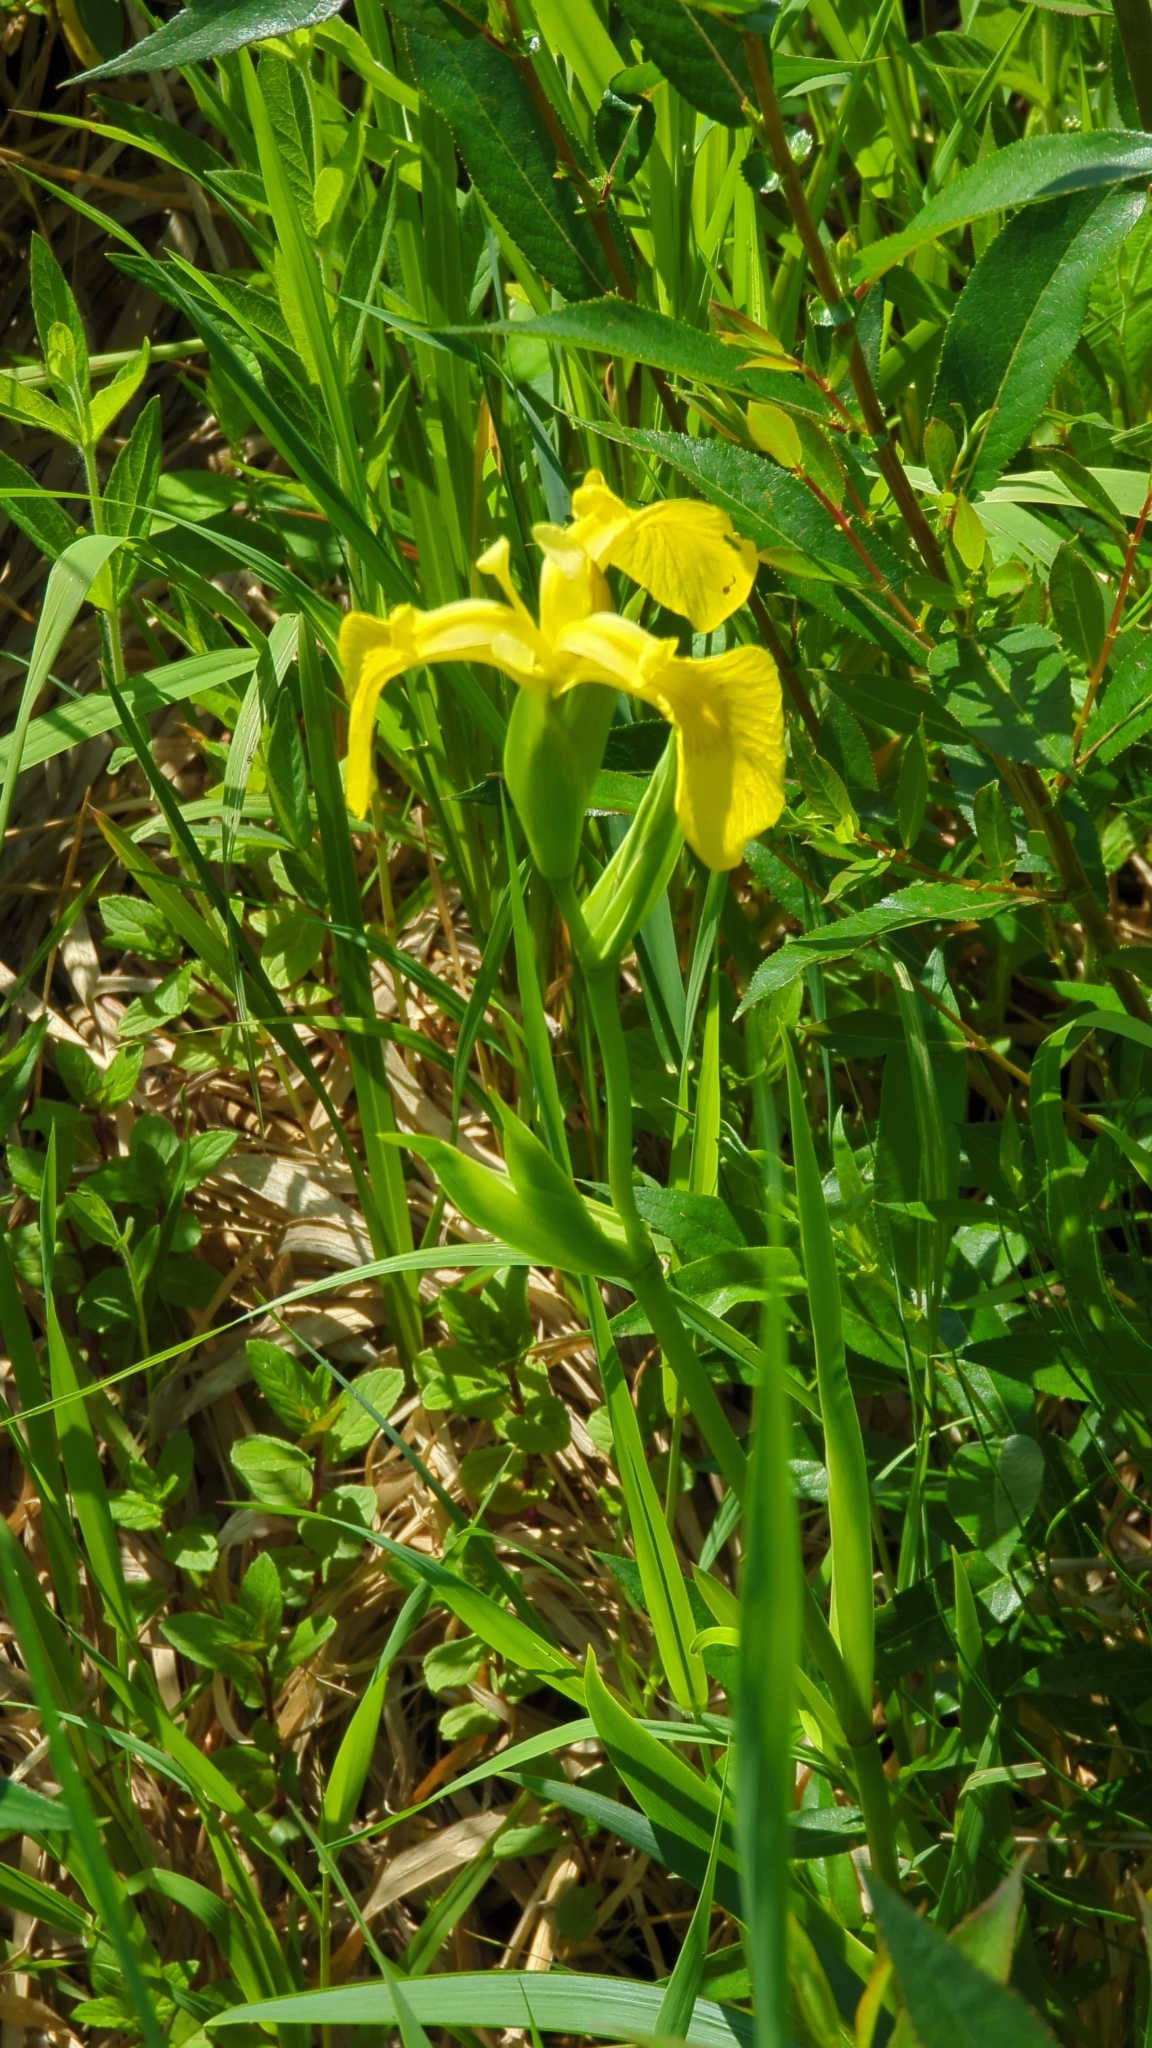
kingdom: Plantae
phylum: Tracheophyta
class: Liliopsida
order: Asparagales
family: Iridaceae
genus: Iris
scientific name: Iris pseudacorus
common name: Yellow flag
